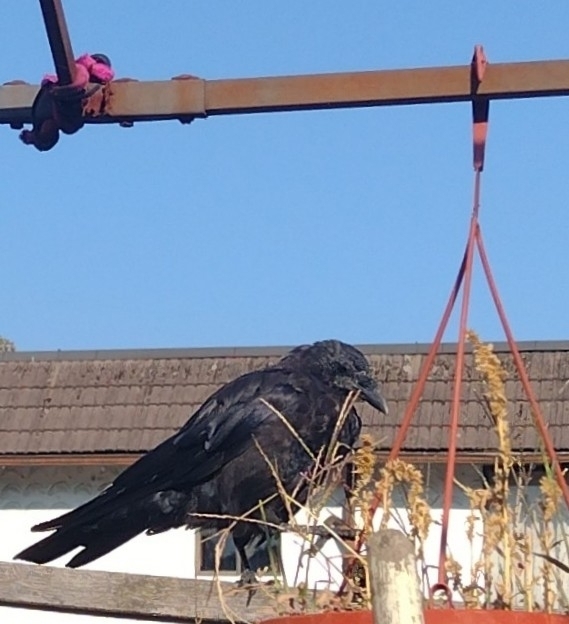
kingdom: Animalia
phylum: Chordata
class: Aves
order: Passeriformes
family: Corvidae
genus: Corvus
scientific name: Corvus brachyrhynchos
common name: American crow
